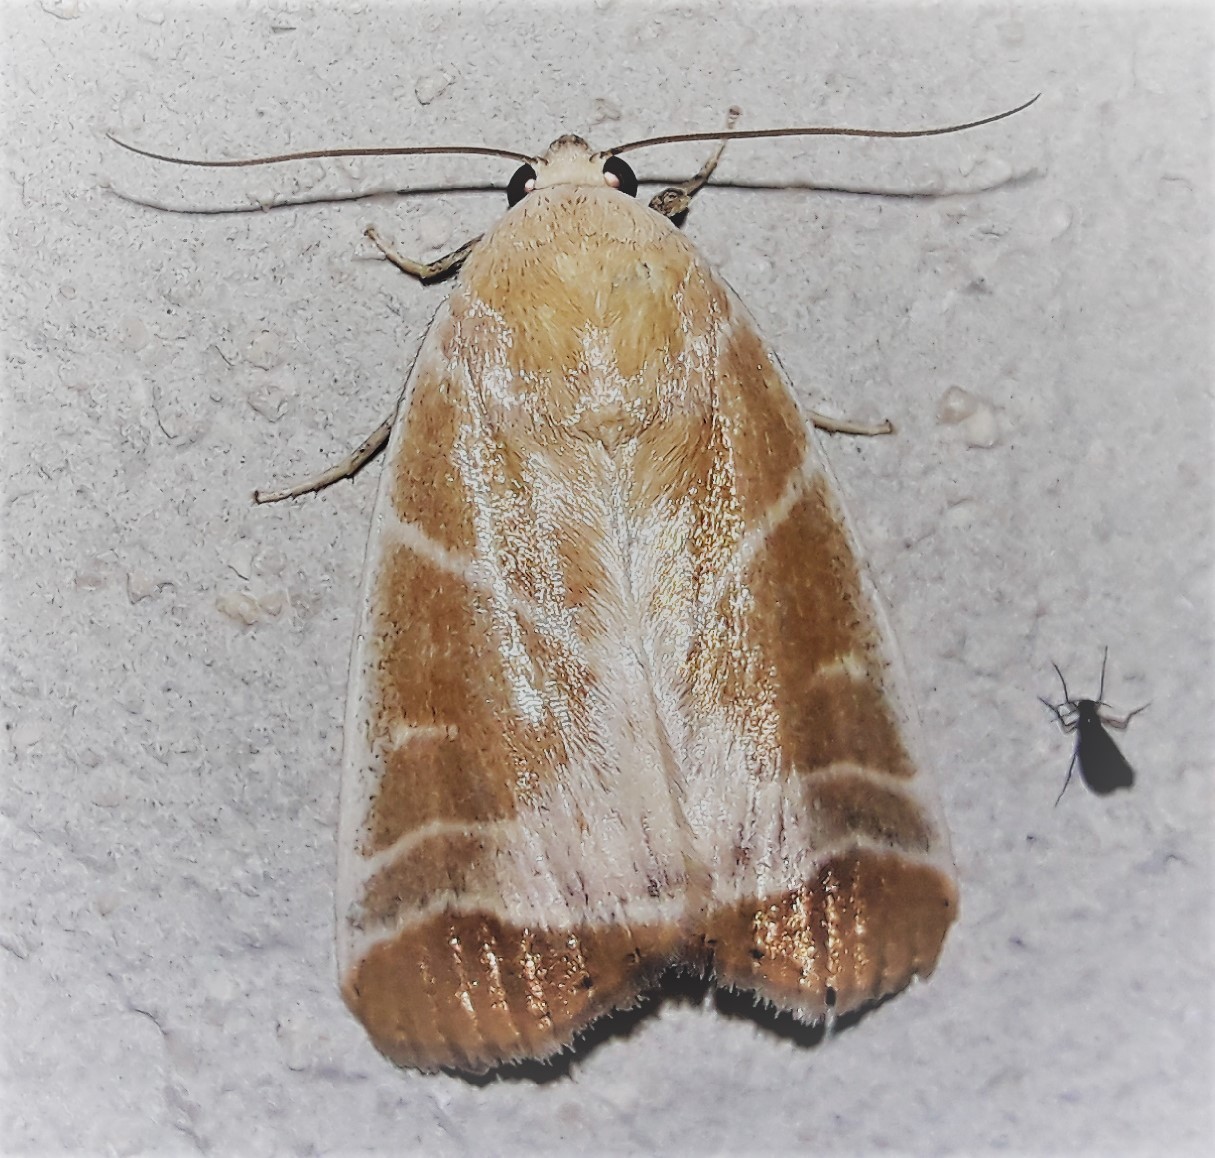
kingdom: Animalia
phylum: Arthropoda
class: Insecta
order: Lepidoptera
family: Noctuidae
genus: Bagisara
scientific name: Bagisara albicosta
